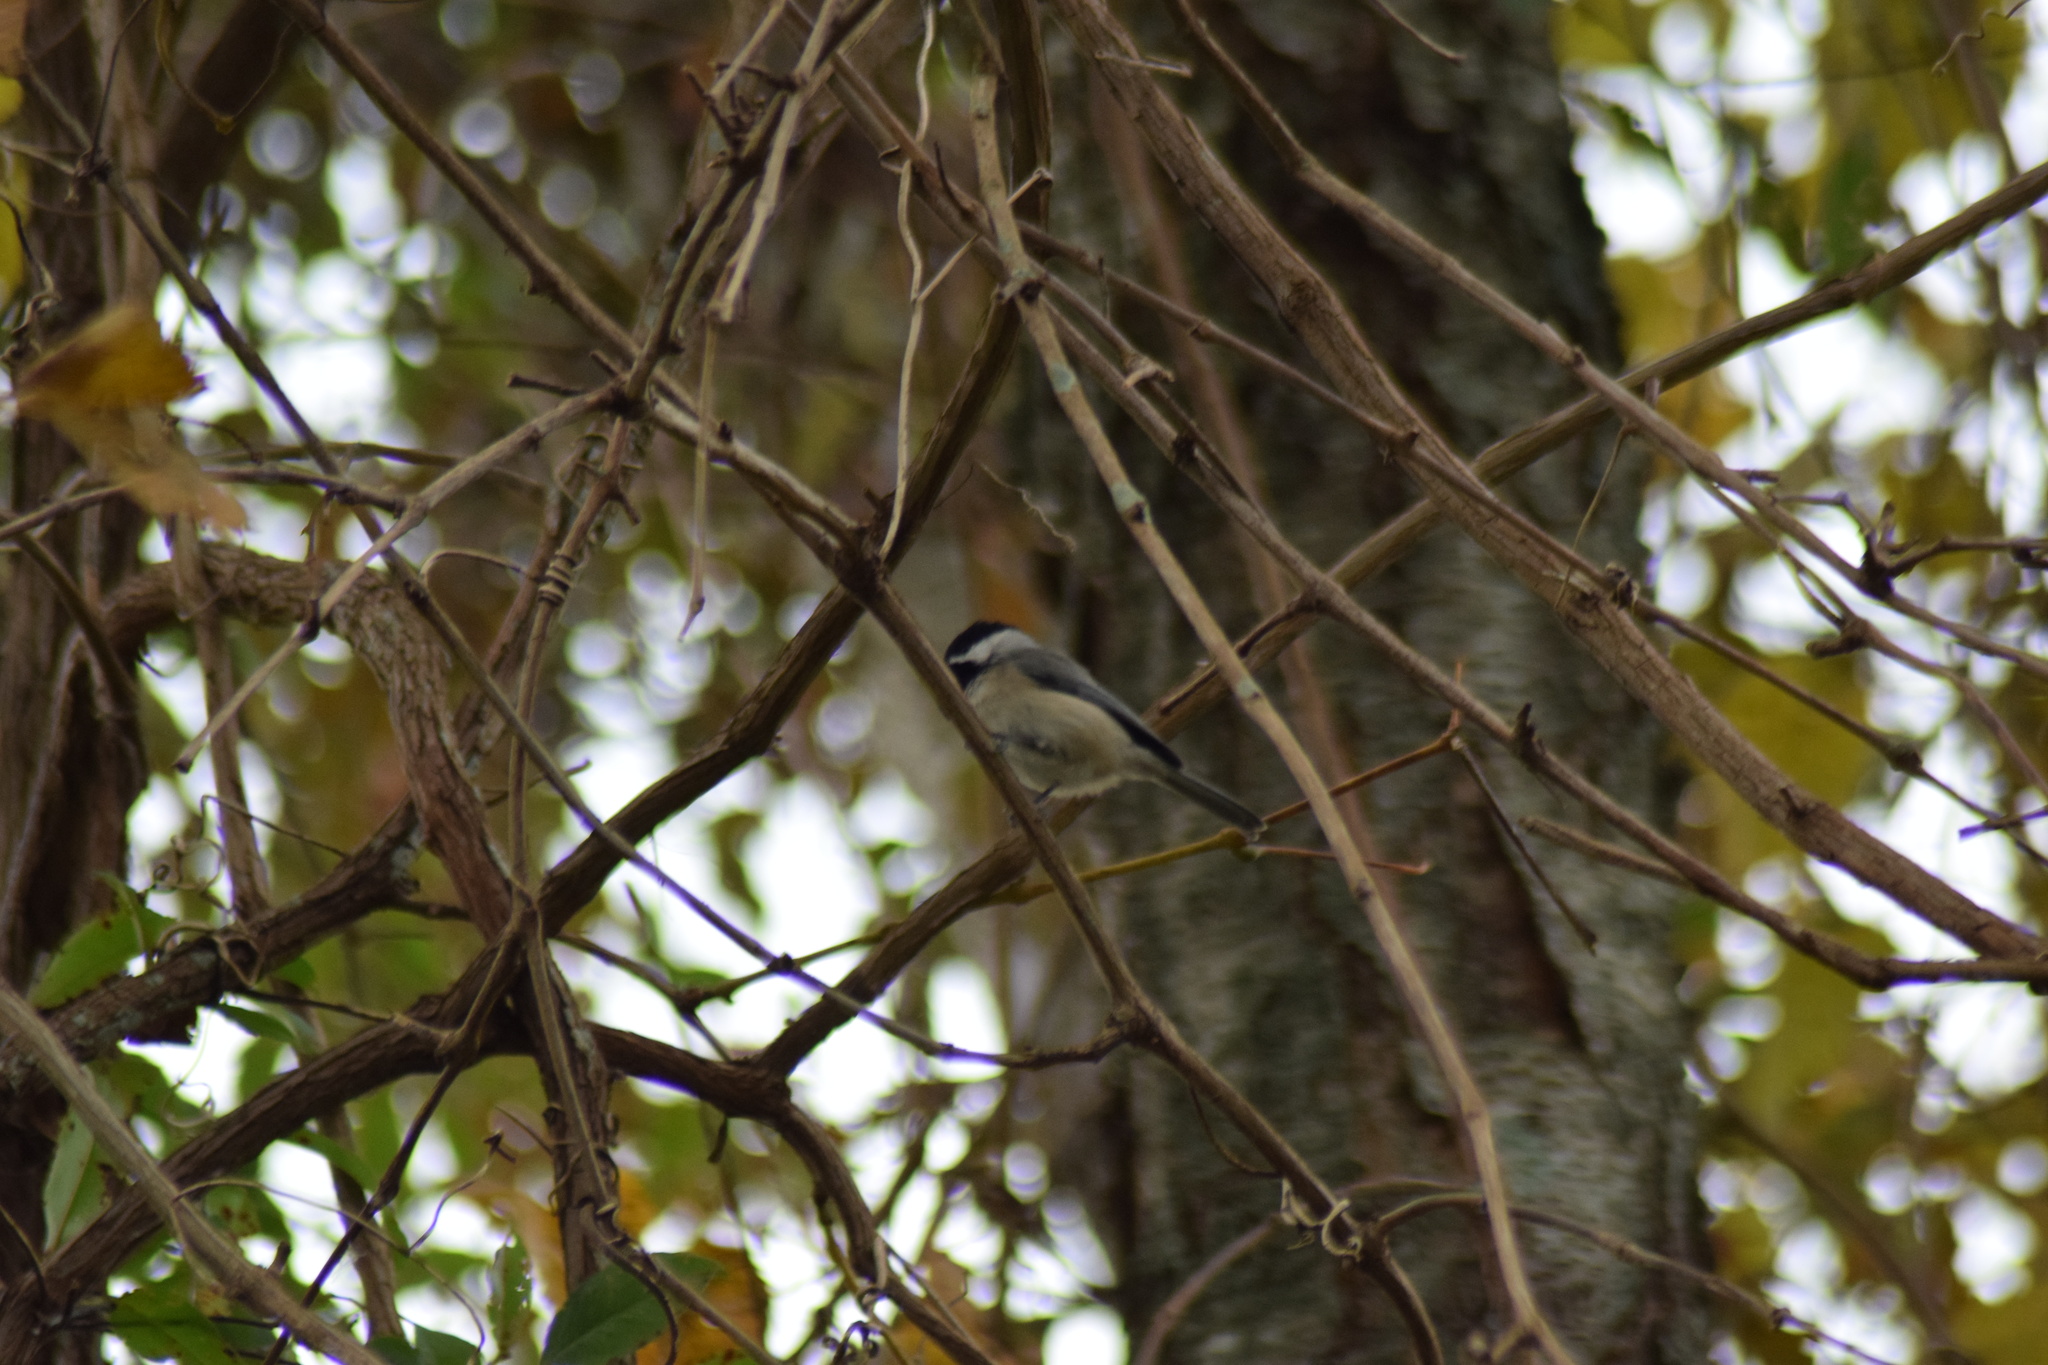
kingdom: Animalia
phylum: Chordata
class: Aves
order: Passeriformes
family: Paridae
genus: Poecile
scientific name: Poecile carolinensis
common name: Carolina chickadee
